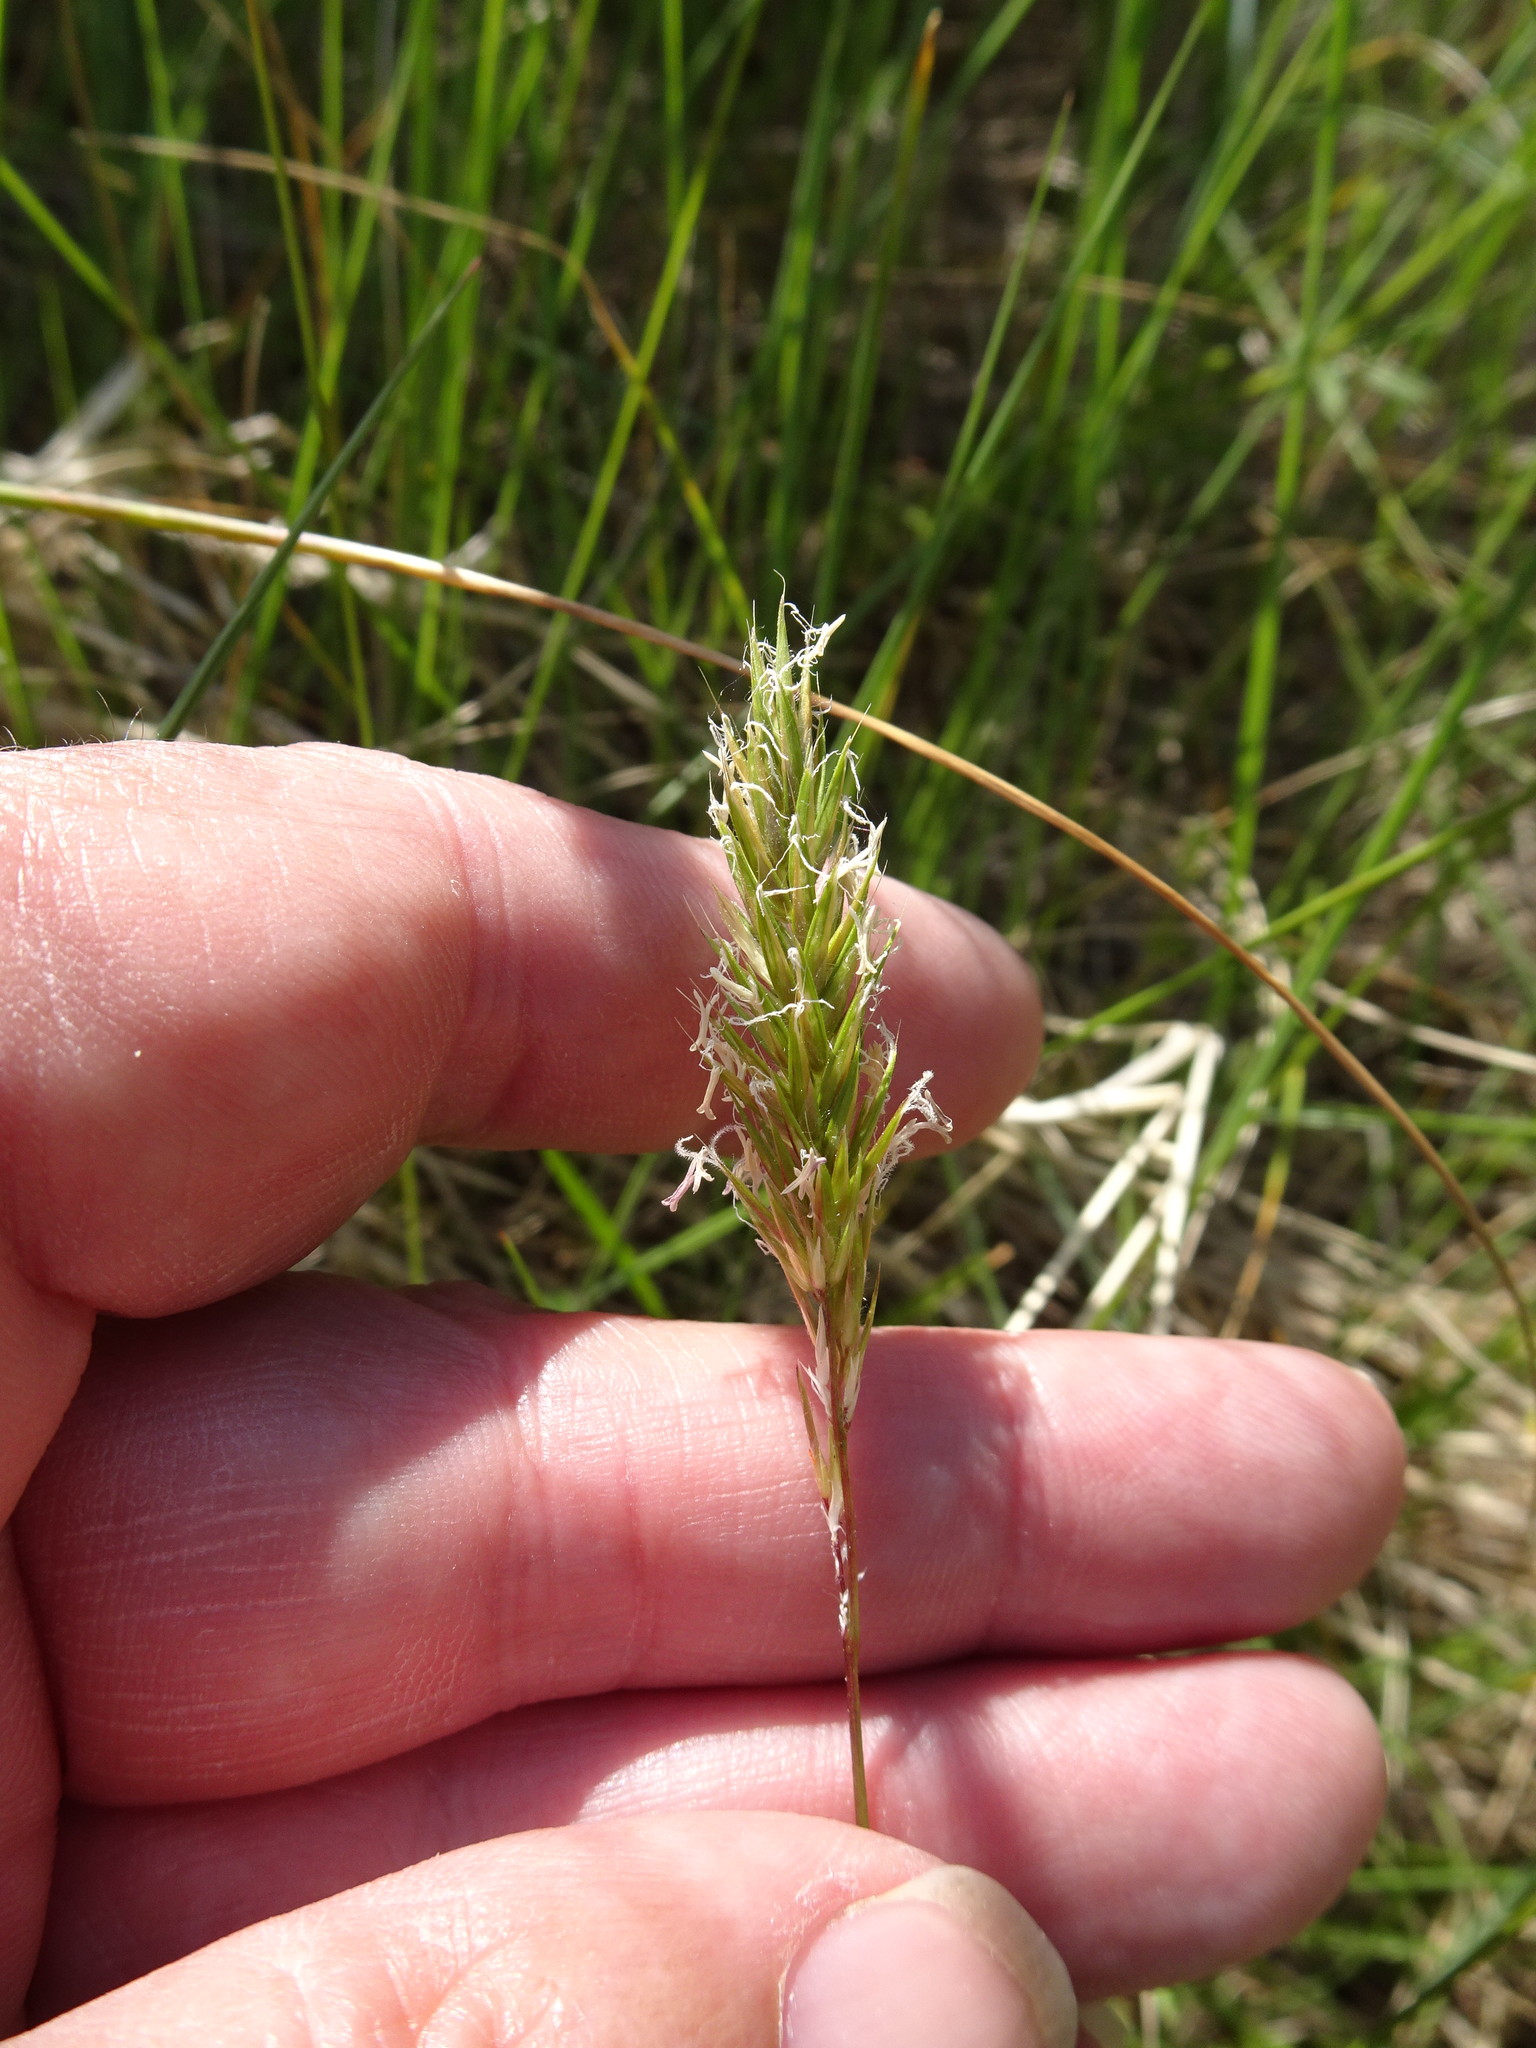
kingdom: Plantae
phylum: Tracheophyta
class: Liliopsida
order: Poales
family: Poaceae
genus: Anthoxanthum
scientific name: Anthoxanthum odoratum
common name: Sweet vernalgrass
